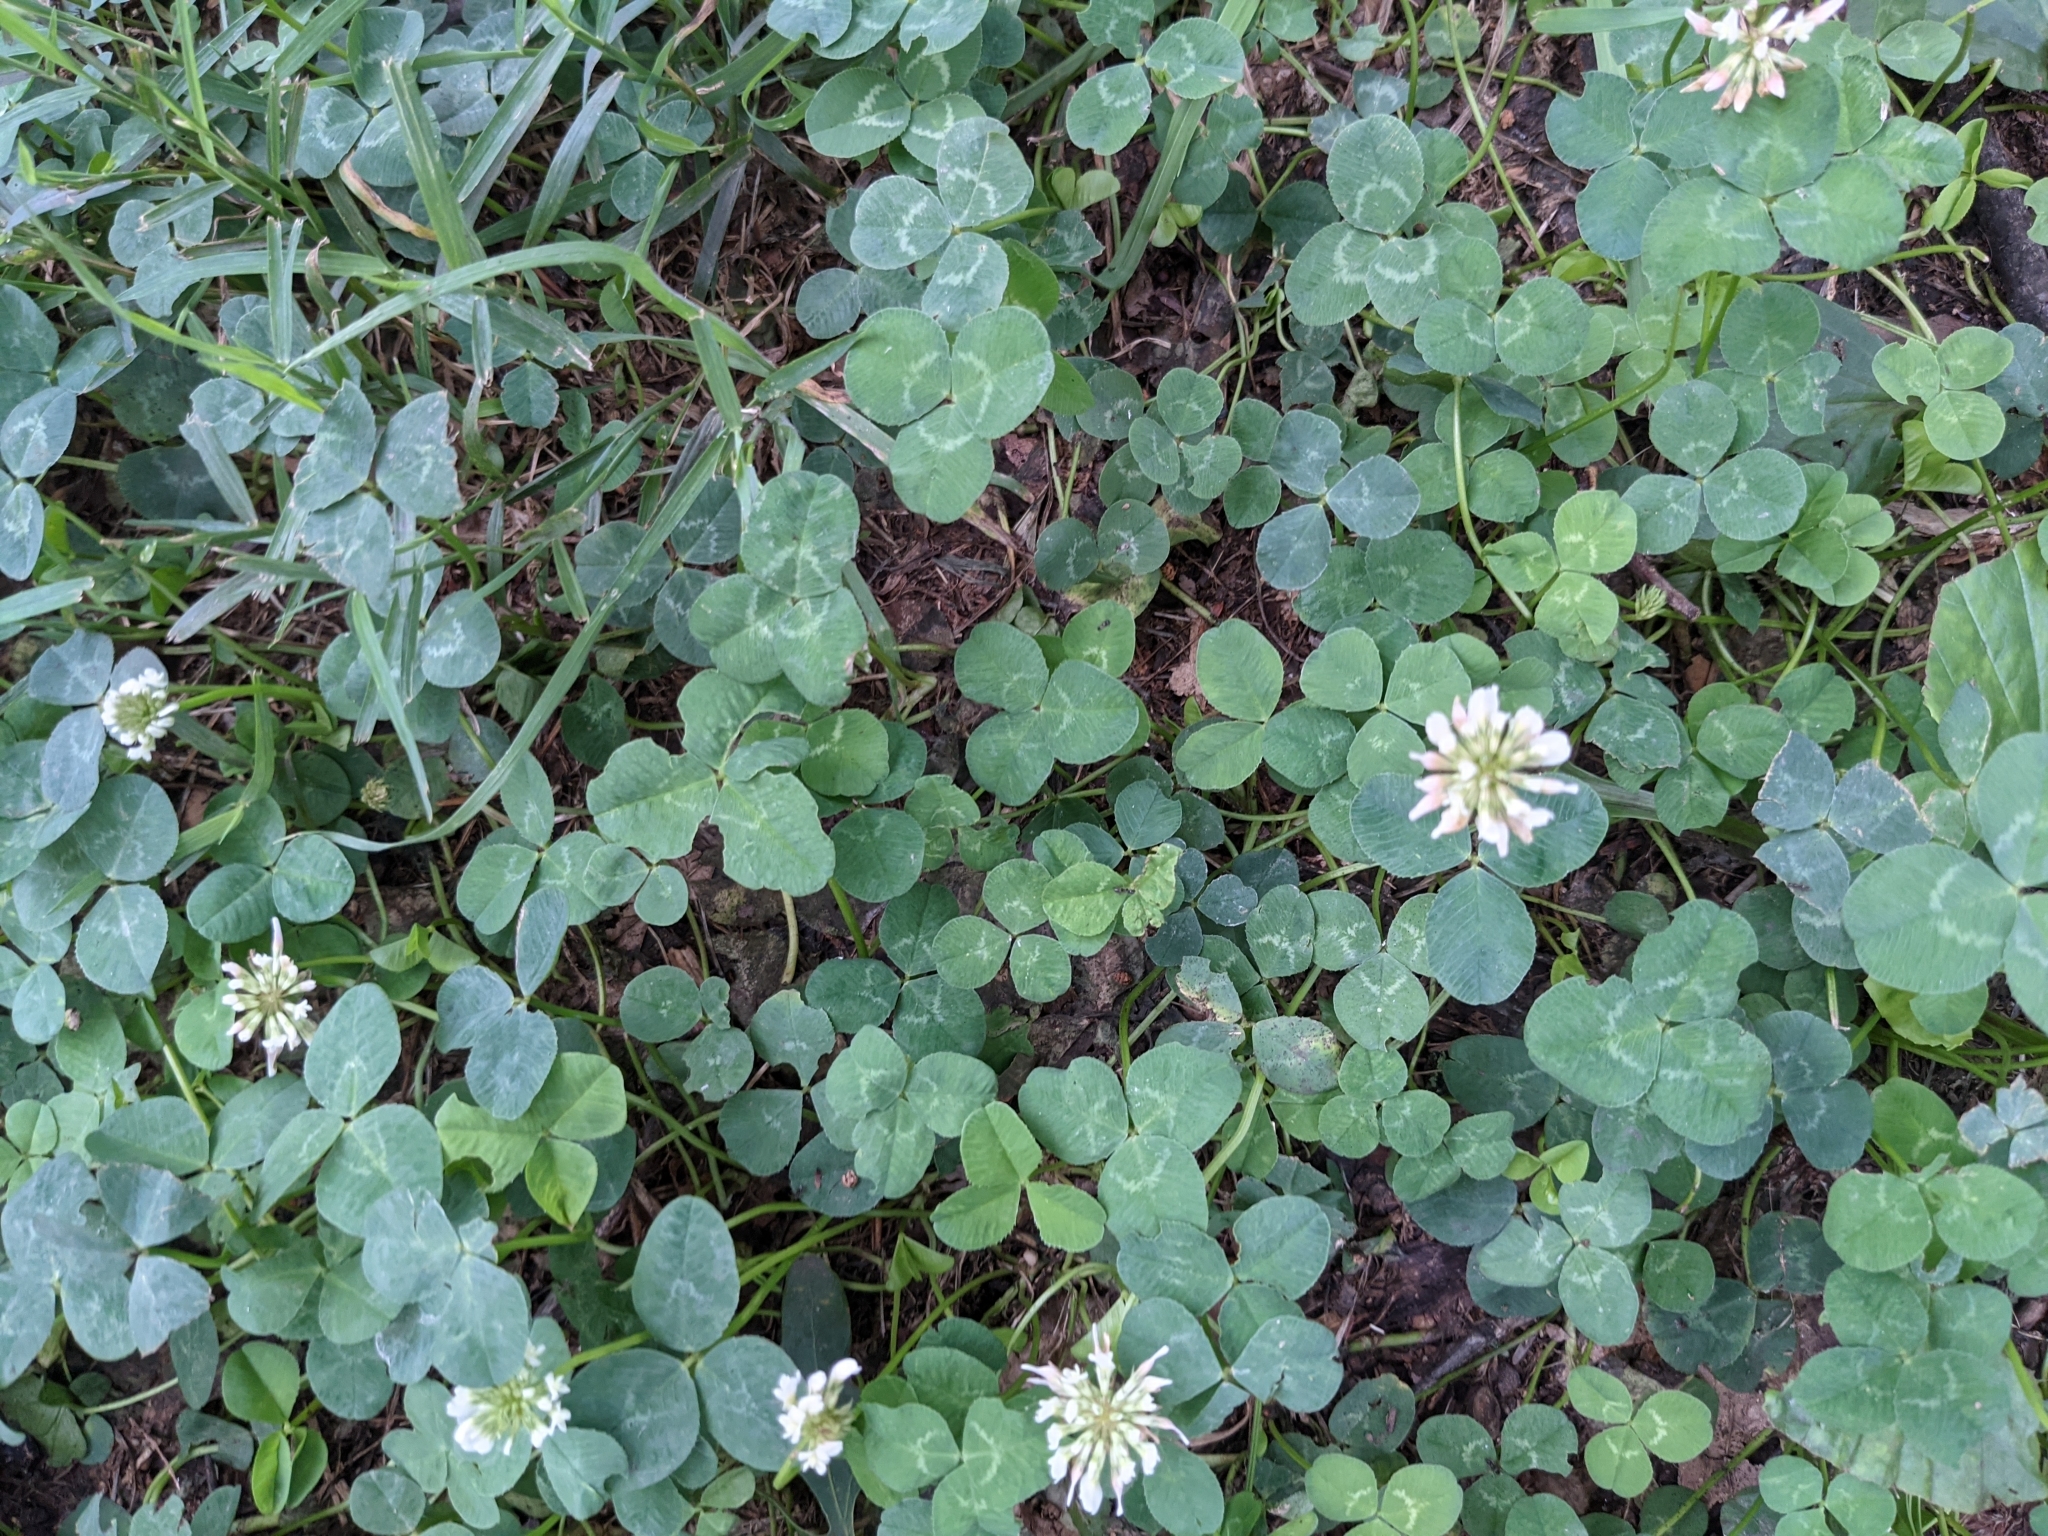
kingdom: Plantae
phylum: Tracheophyta
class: Magnoliopsida
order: Fabales
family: Fabaceae
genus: Trifolium
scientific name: Trifolium repens
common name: White clover
